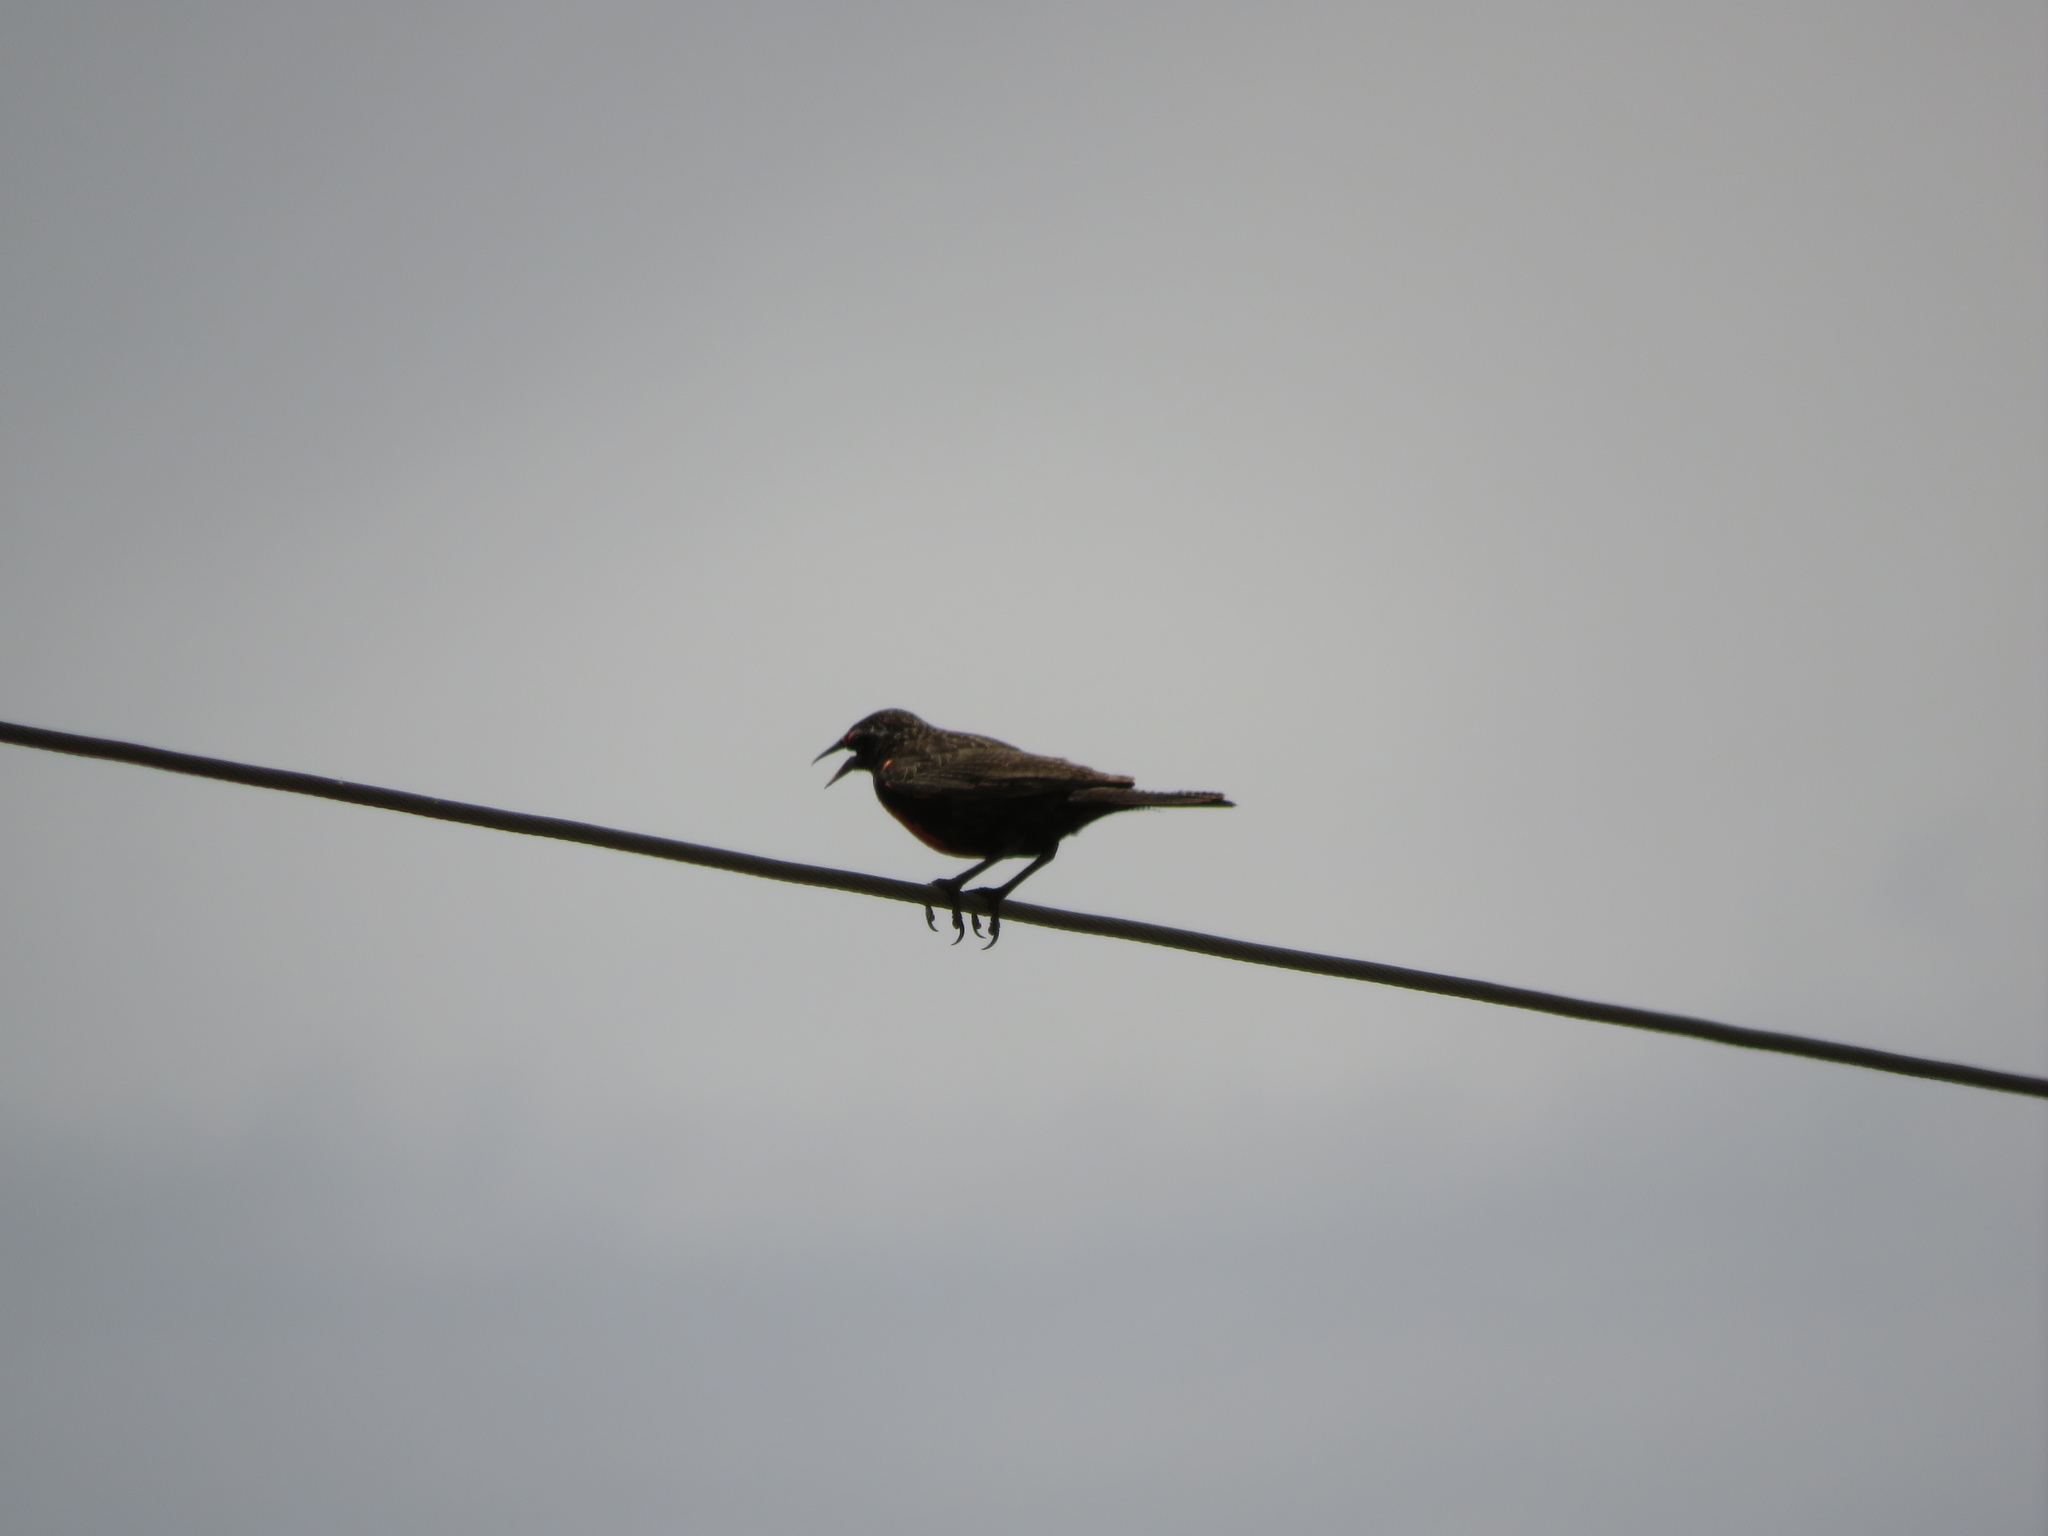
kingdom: Animalia
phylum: Chordata
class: Aves
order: Passeriformes
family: Icteridae
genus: Sturnella
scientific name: Sturnella loyca
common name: Long-tailed meadowlark
